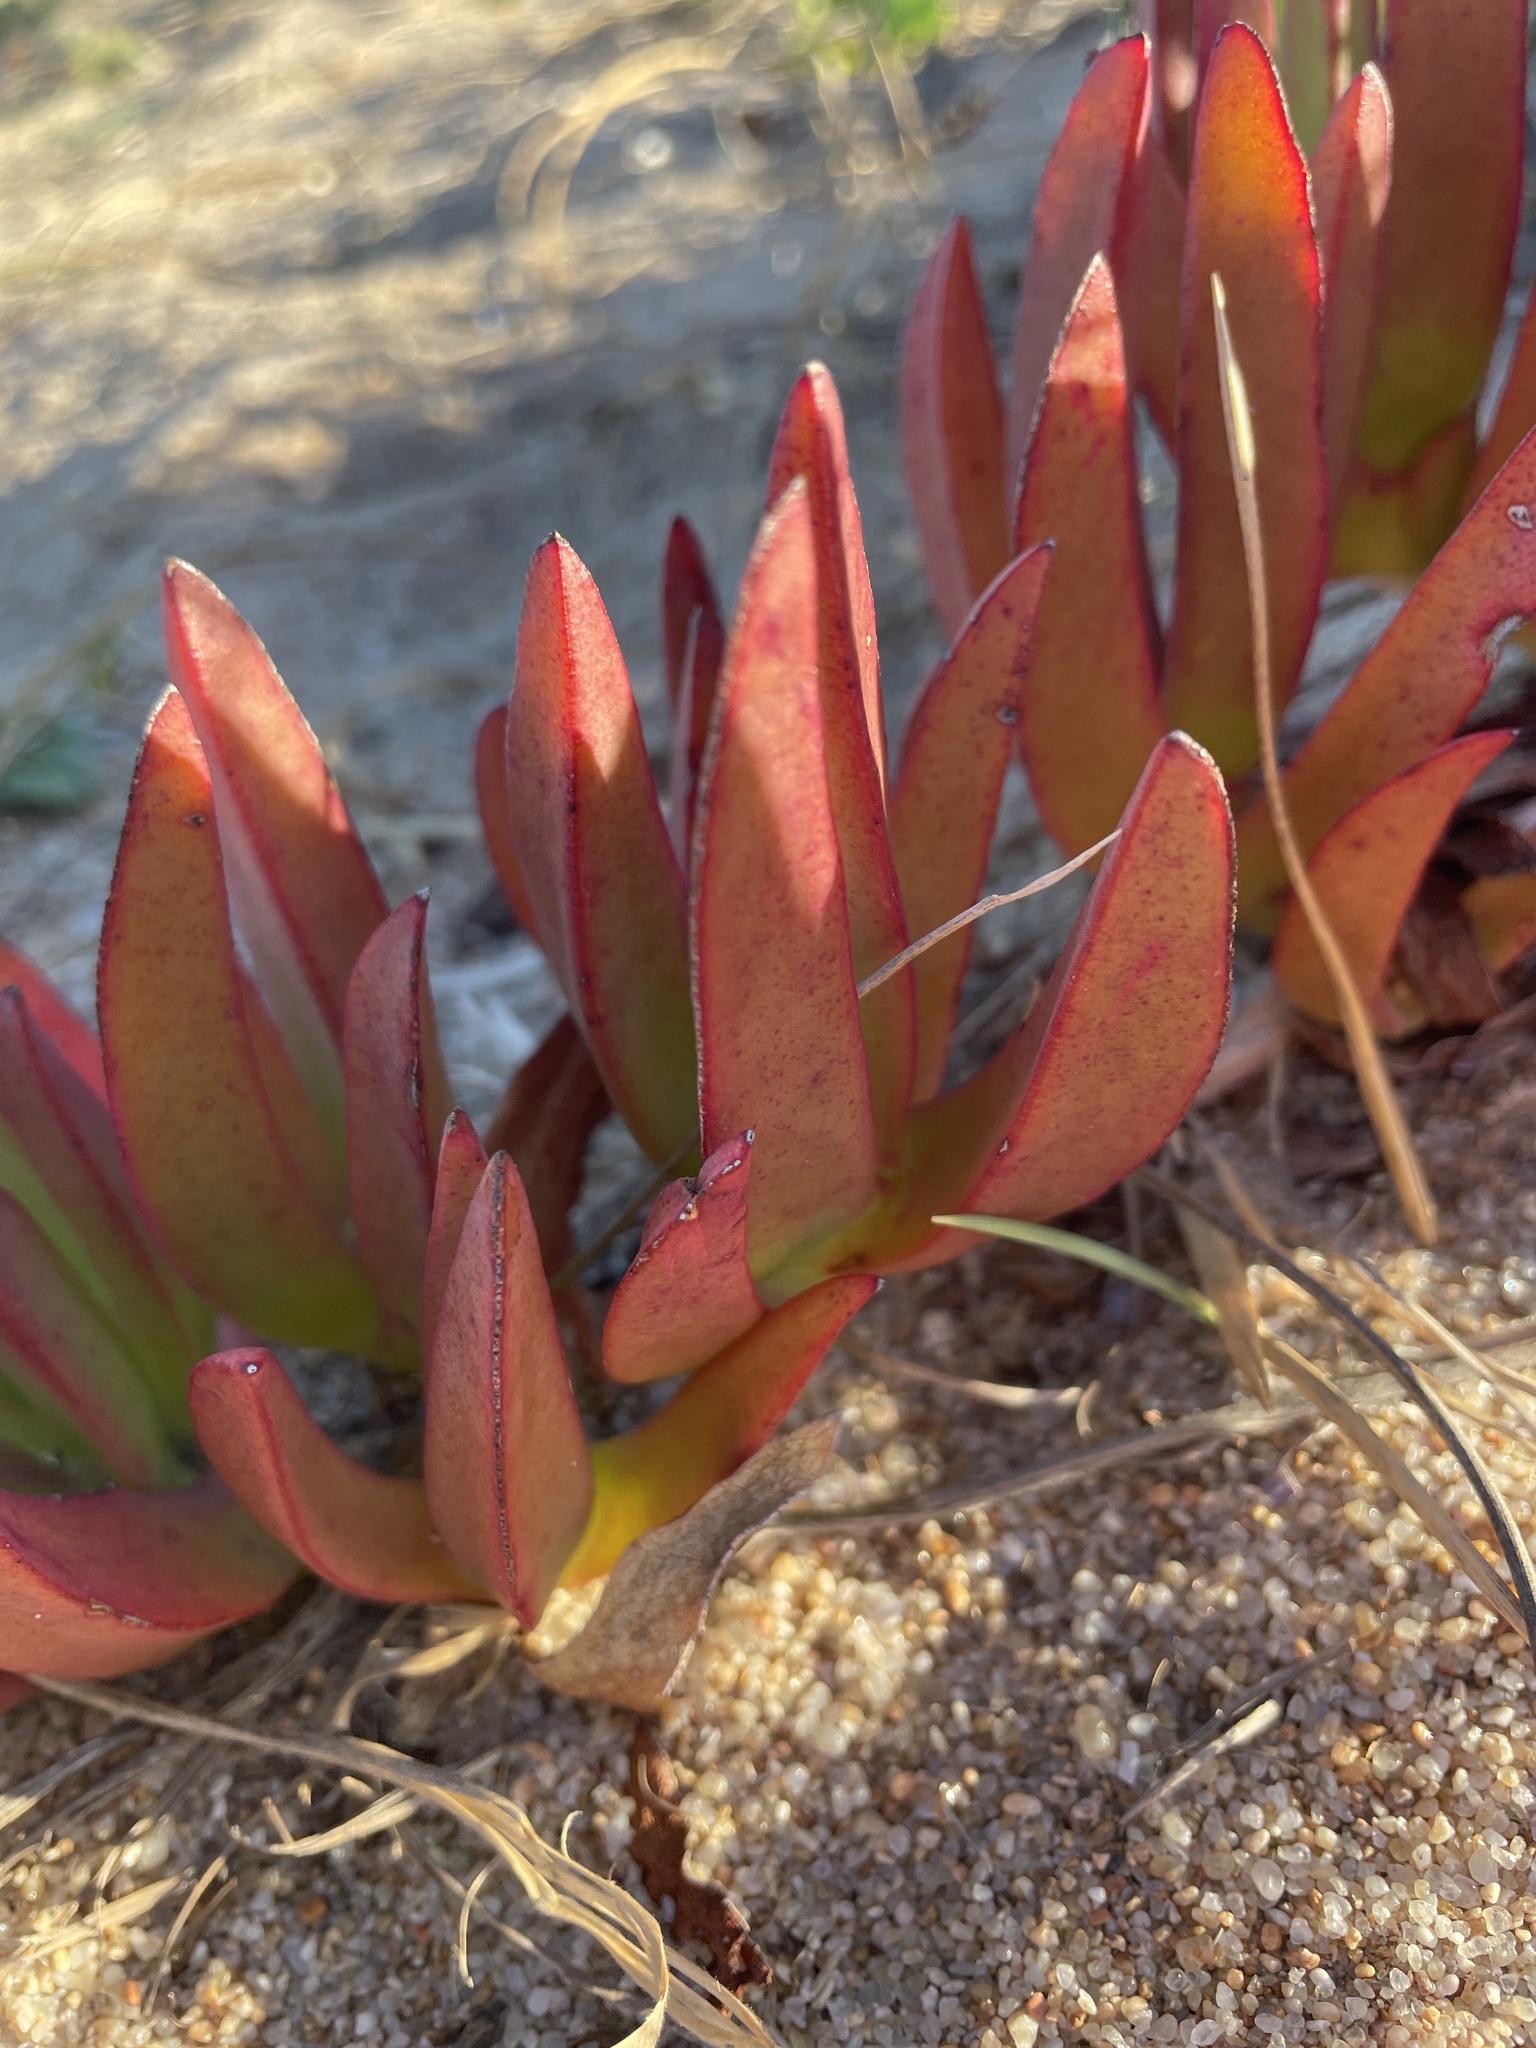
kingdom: Plantae
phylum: Tracheophyta
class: Magnoliopsida
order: Caryophyllales
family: Aizoaceae
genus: Carpobrotus
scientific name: Carpobrotus edulis
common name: Hottentot-fig
